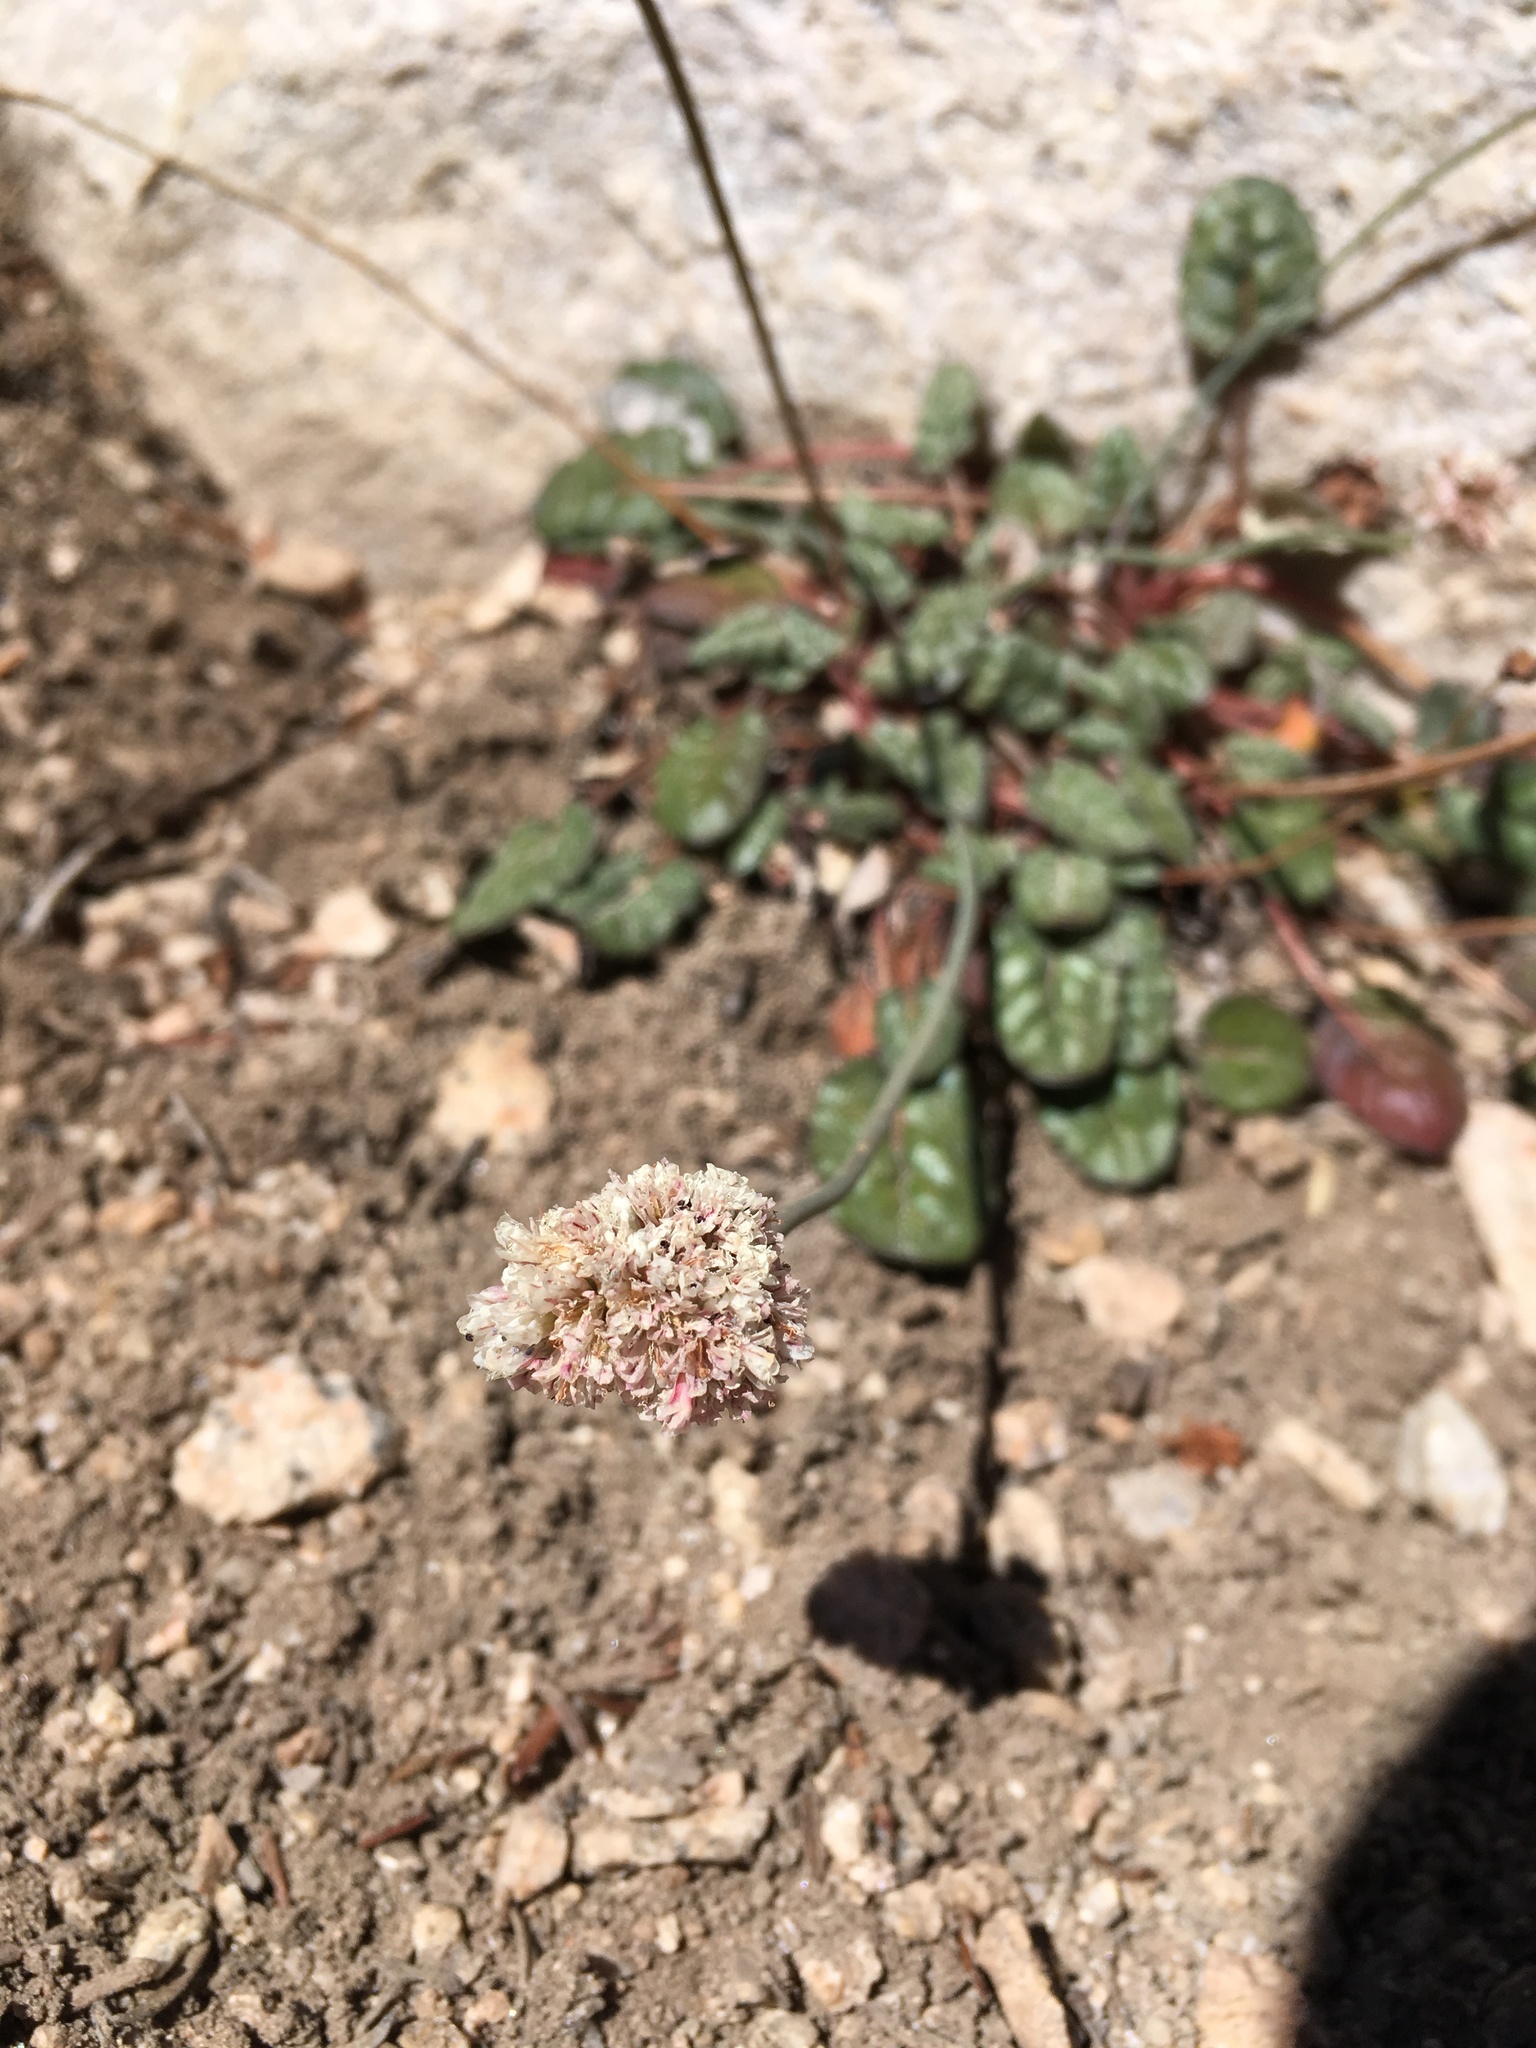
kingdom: Plantae
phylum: Tracheophyta
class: Magnoliopsida
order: Caryophyllales
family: Polygonaceae
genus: Eriogonum
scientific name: Eriogonum nudum
